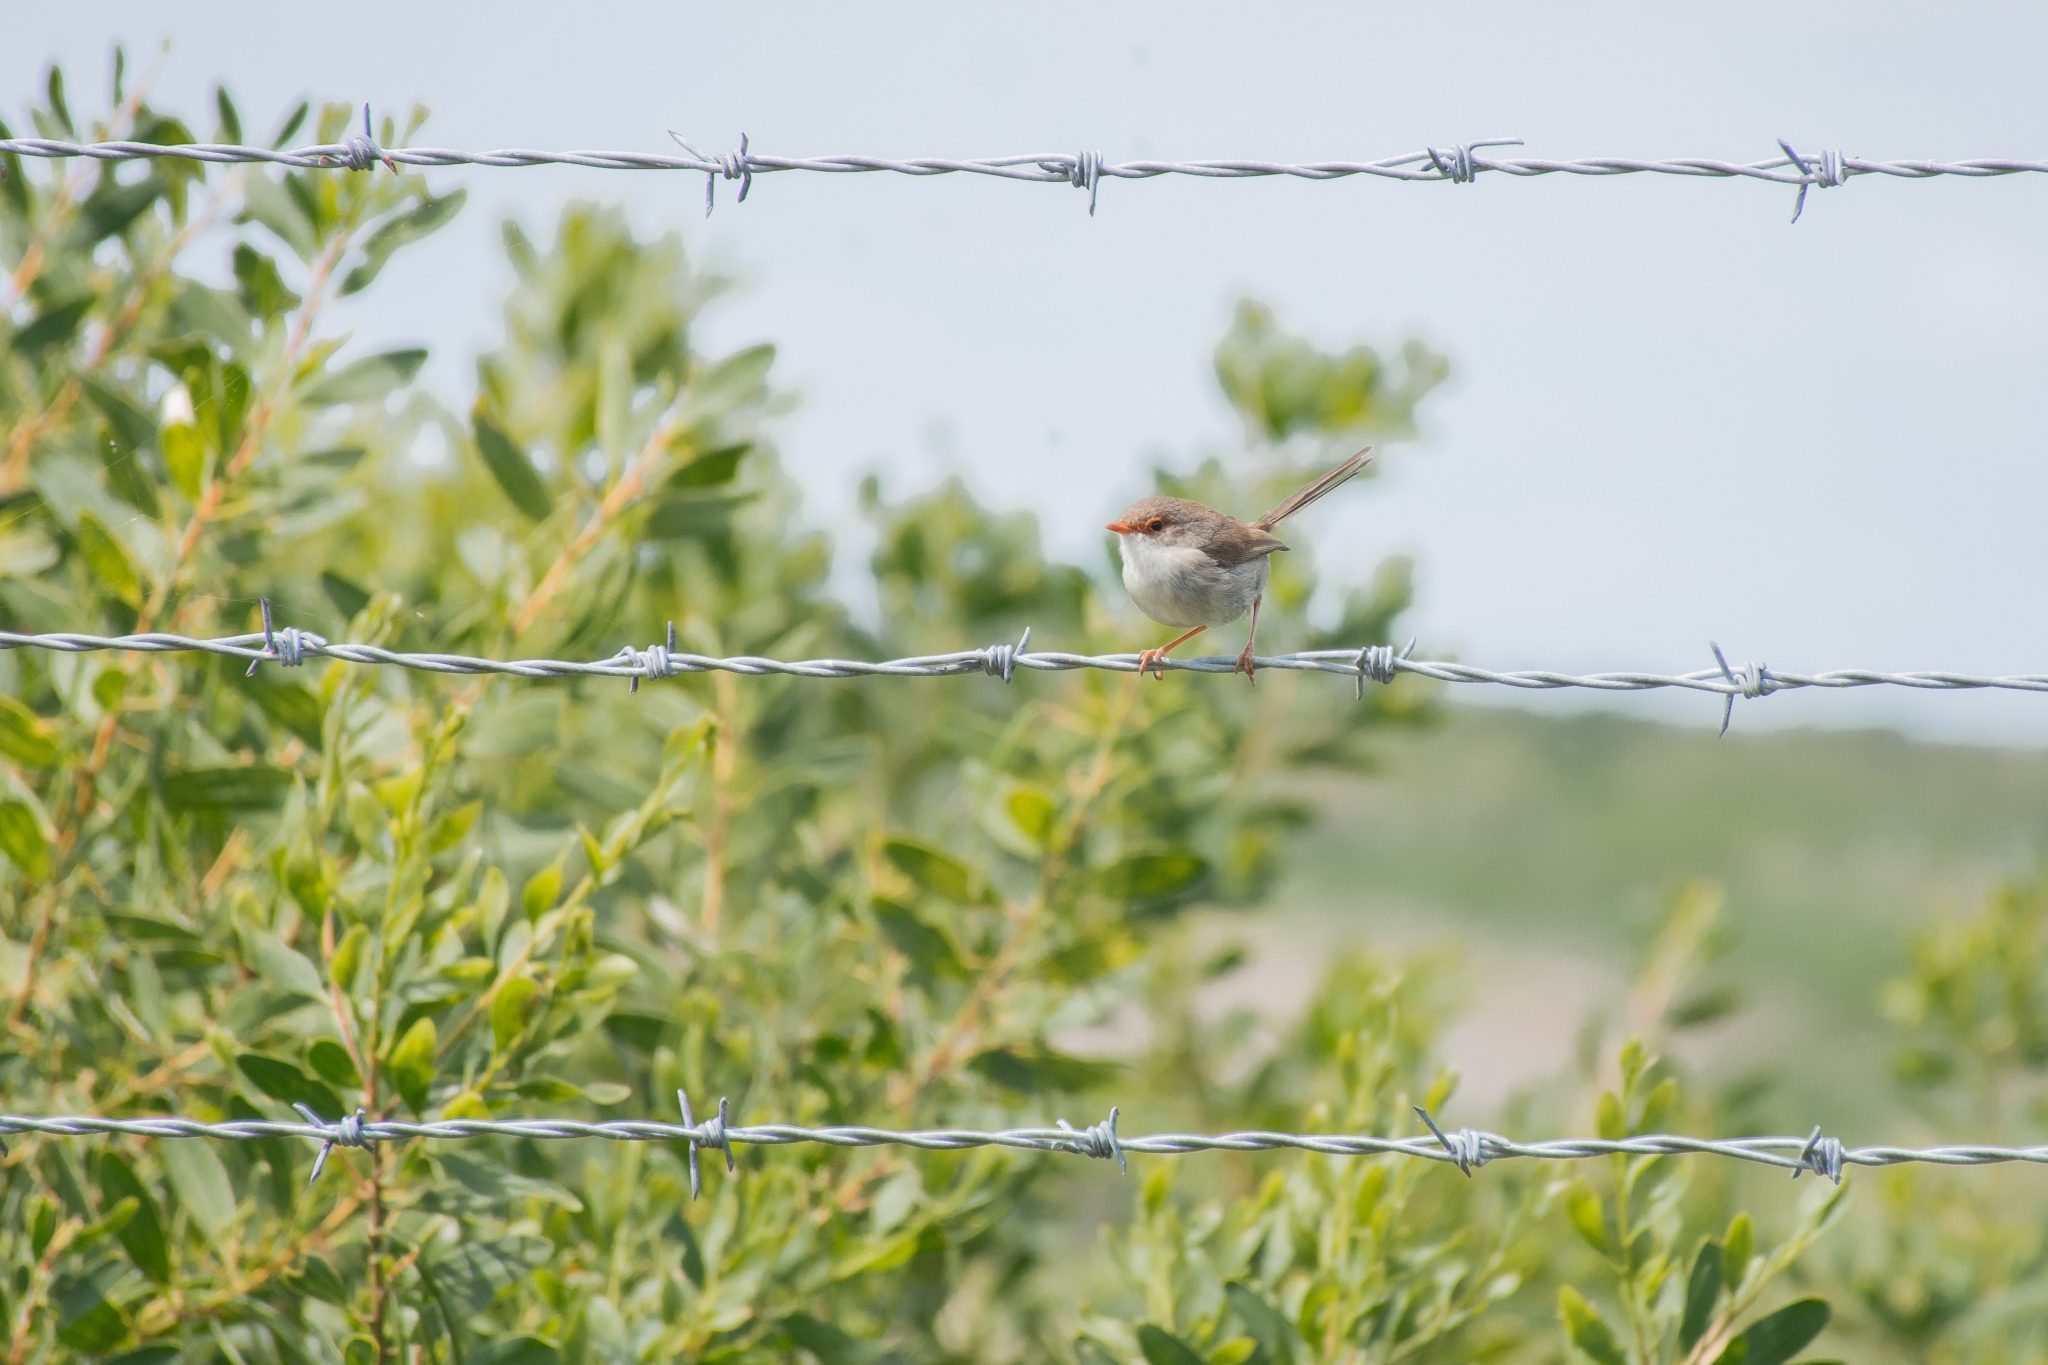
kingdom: Animalia
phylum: Chordata
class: Aves
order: Passeriformes
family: Maluridae
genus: Malurus
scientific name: Malurus cyaneus
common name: Superb fairywren
